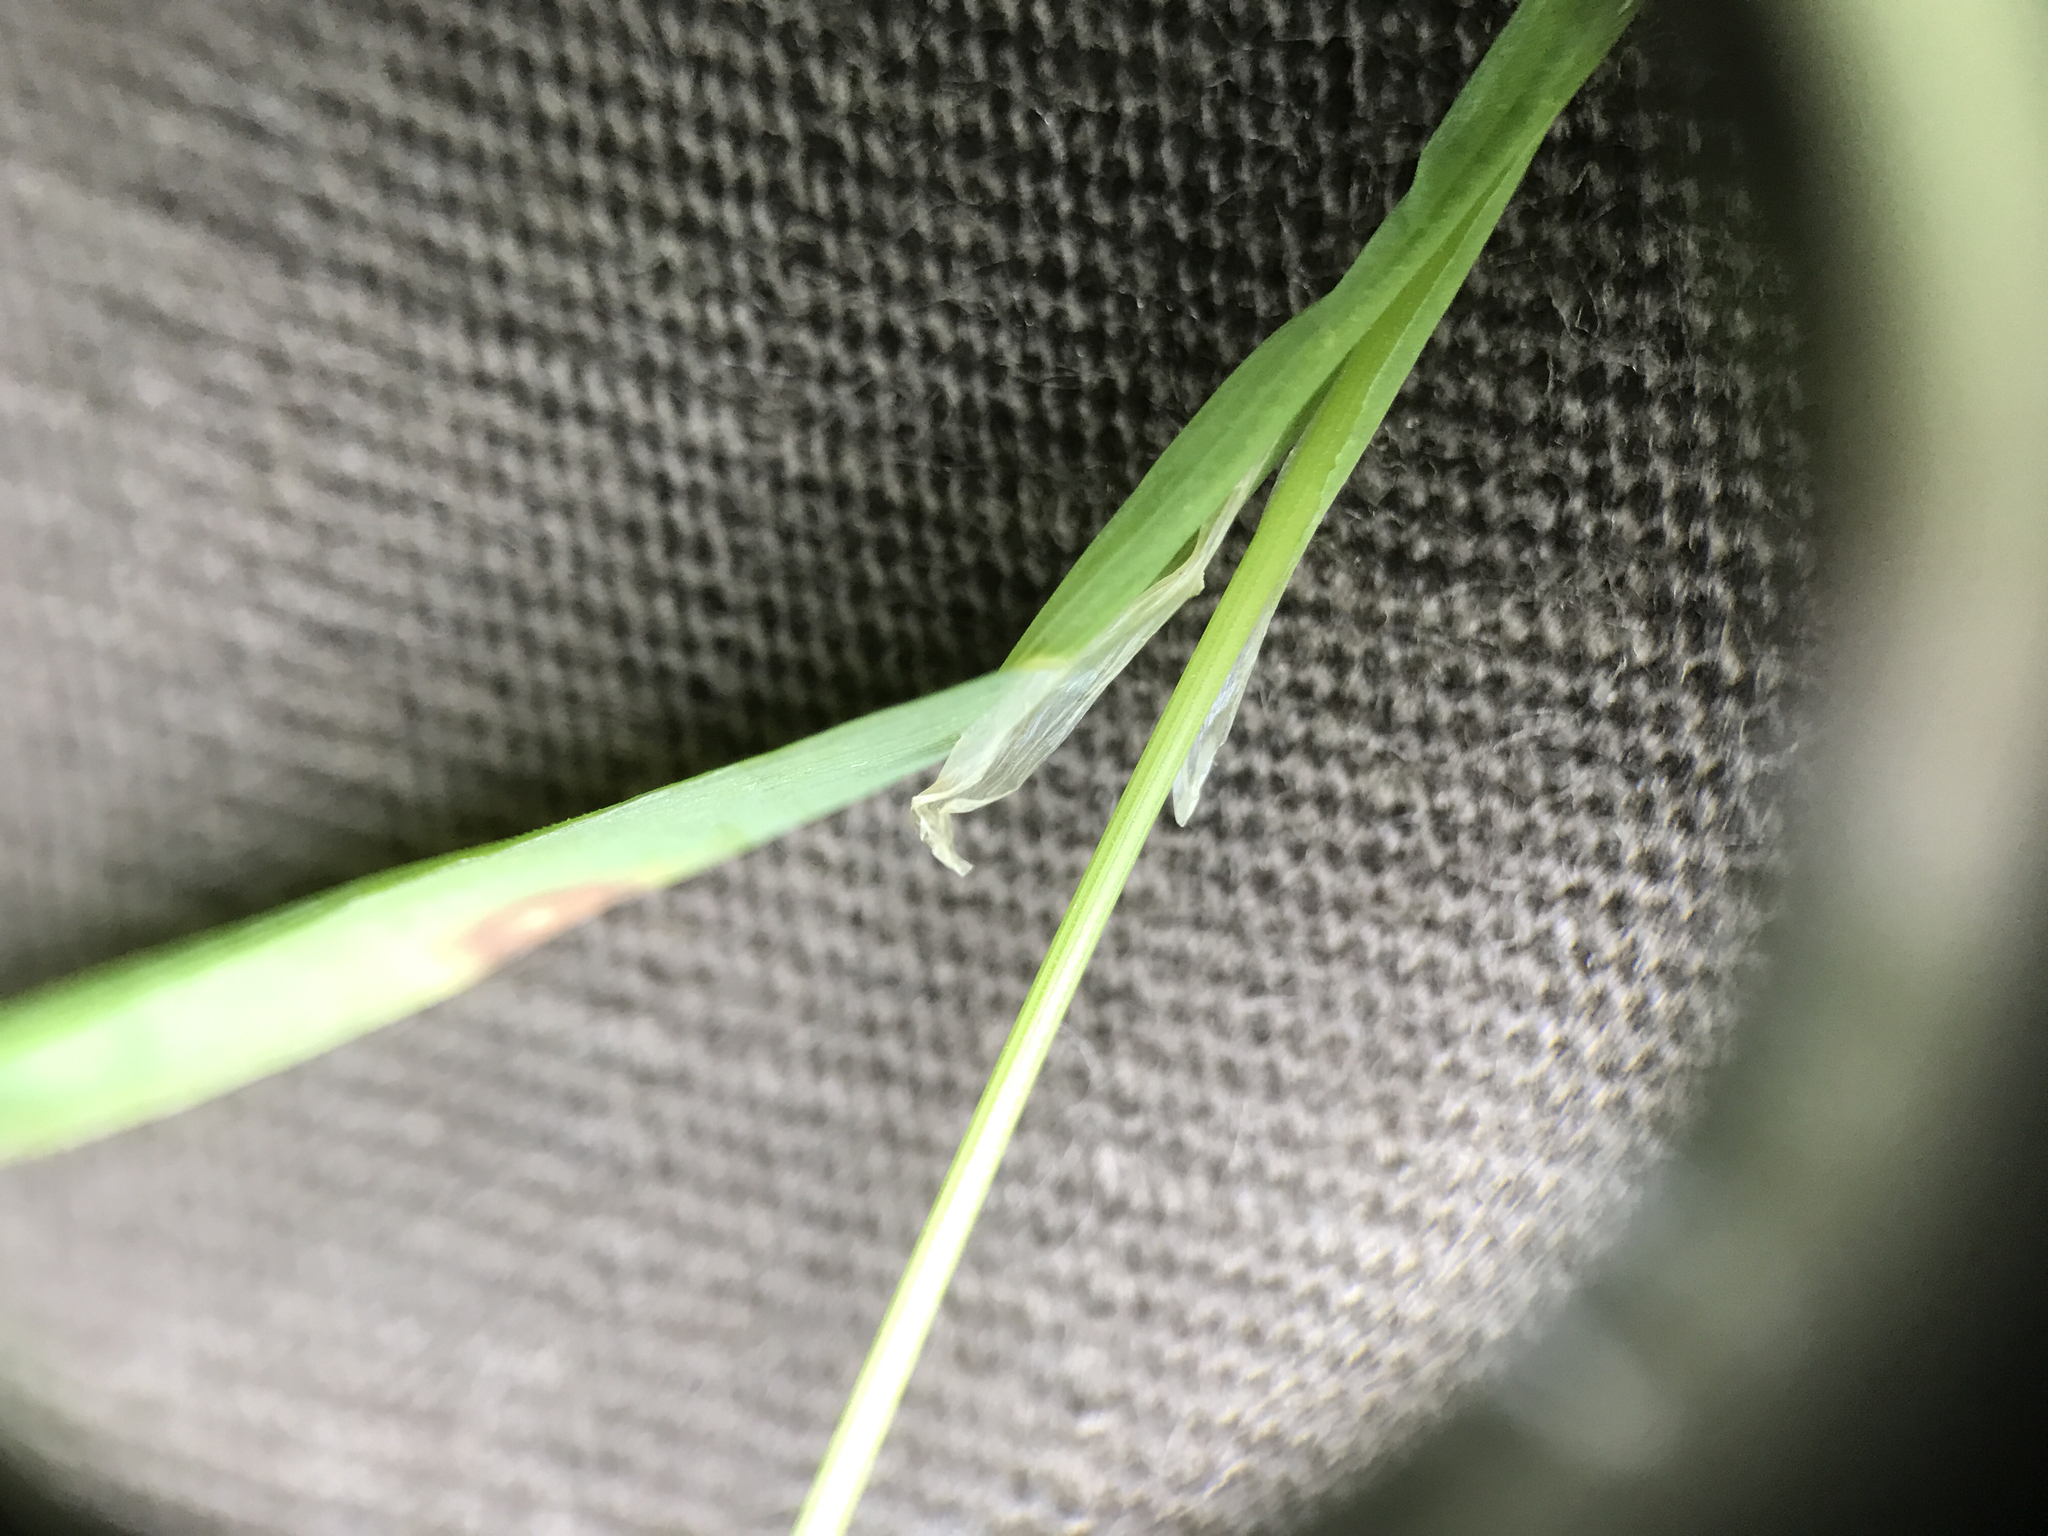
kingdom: Plantae
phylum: Tracheophyta
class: Liliopsida
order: Poales
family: Poaceae
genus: Cynosurus
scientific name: Cynosurus echinatus
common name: Rough dog's-tail
